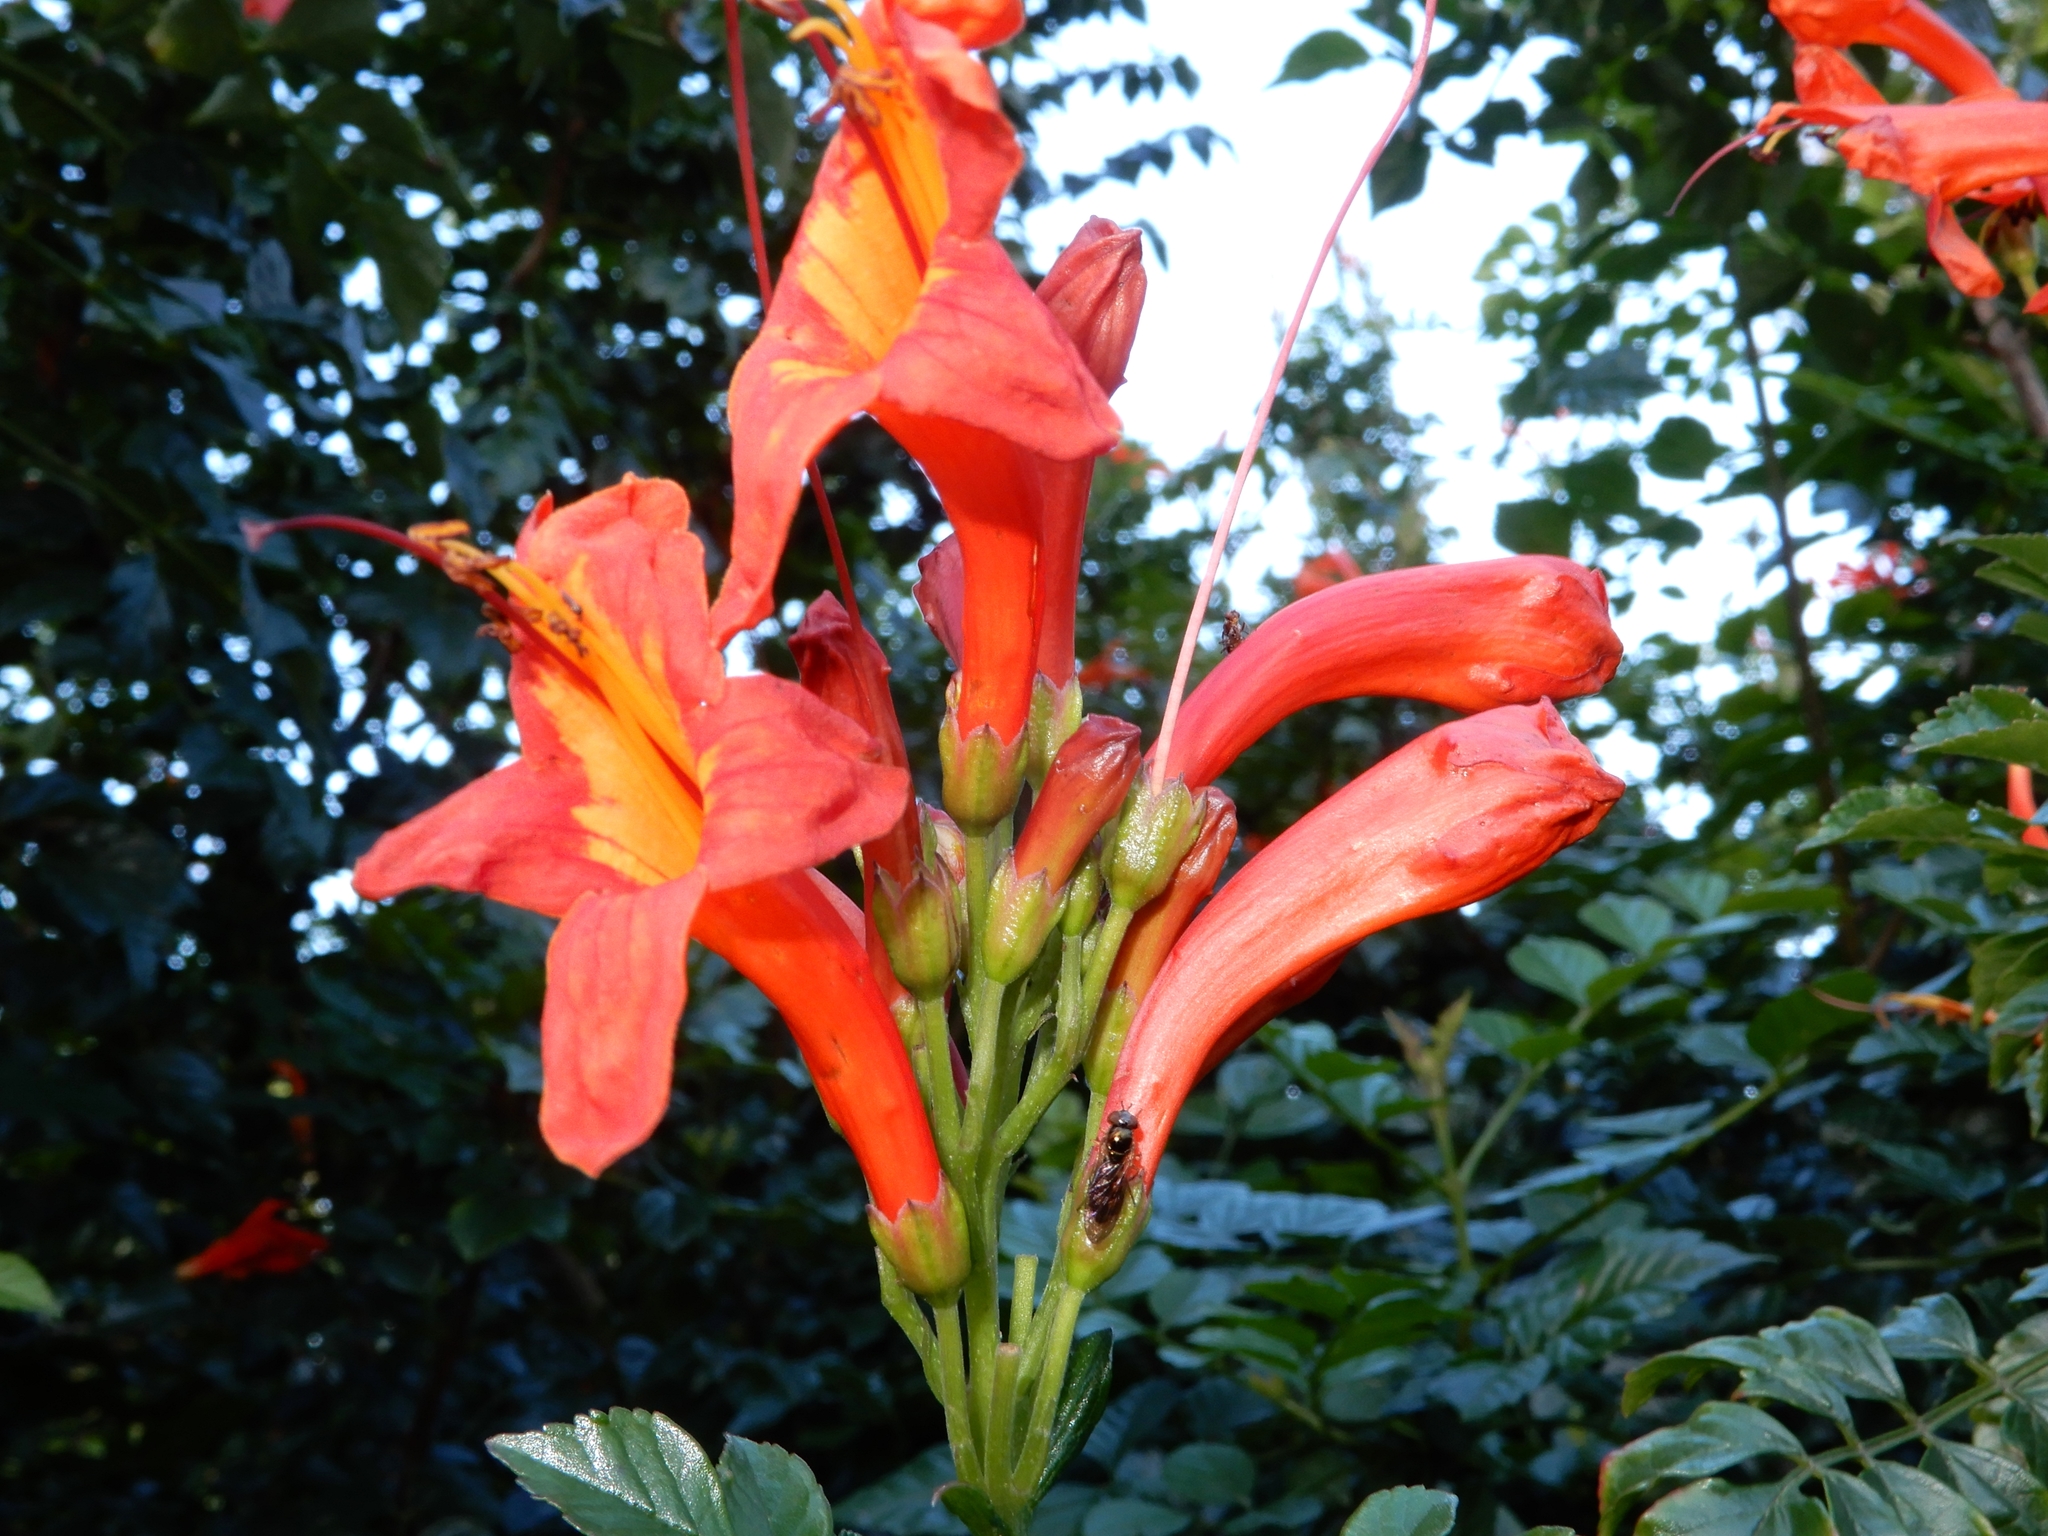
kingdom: Plantae
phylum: Tracheophyta
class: Magnoliopsida
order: Lamiales
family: Bignoniaceae
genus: Tecomaria
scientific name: Tecomaria capensis
